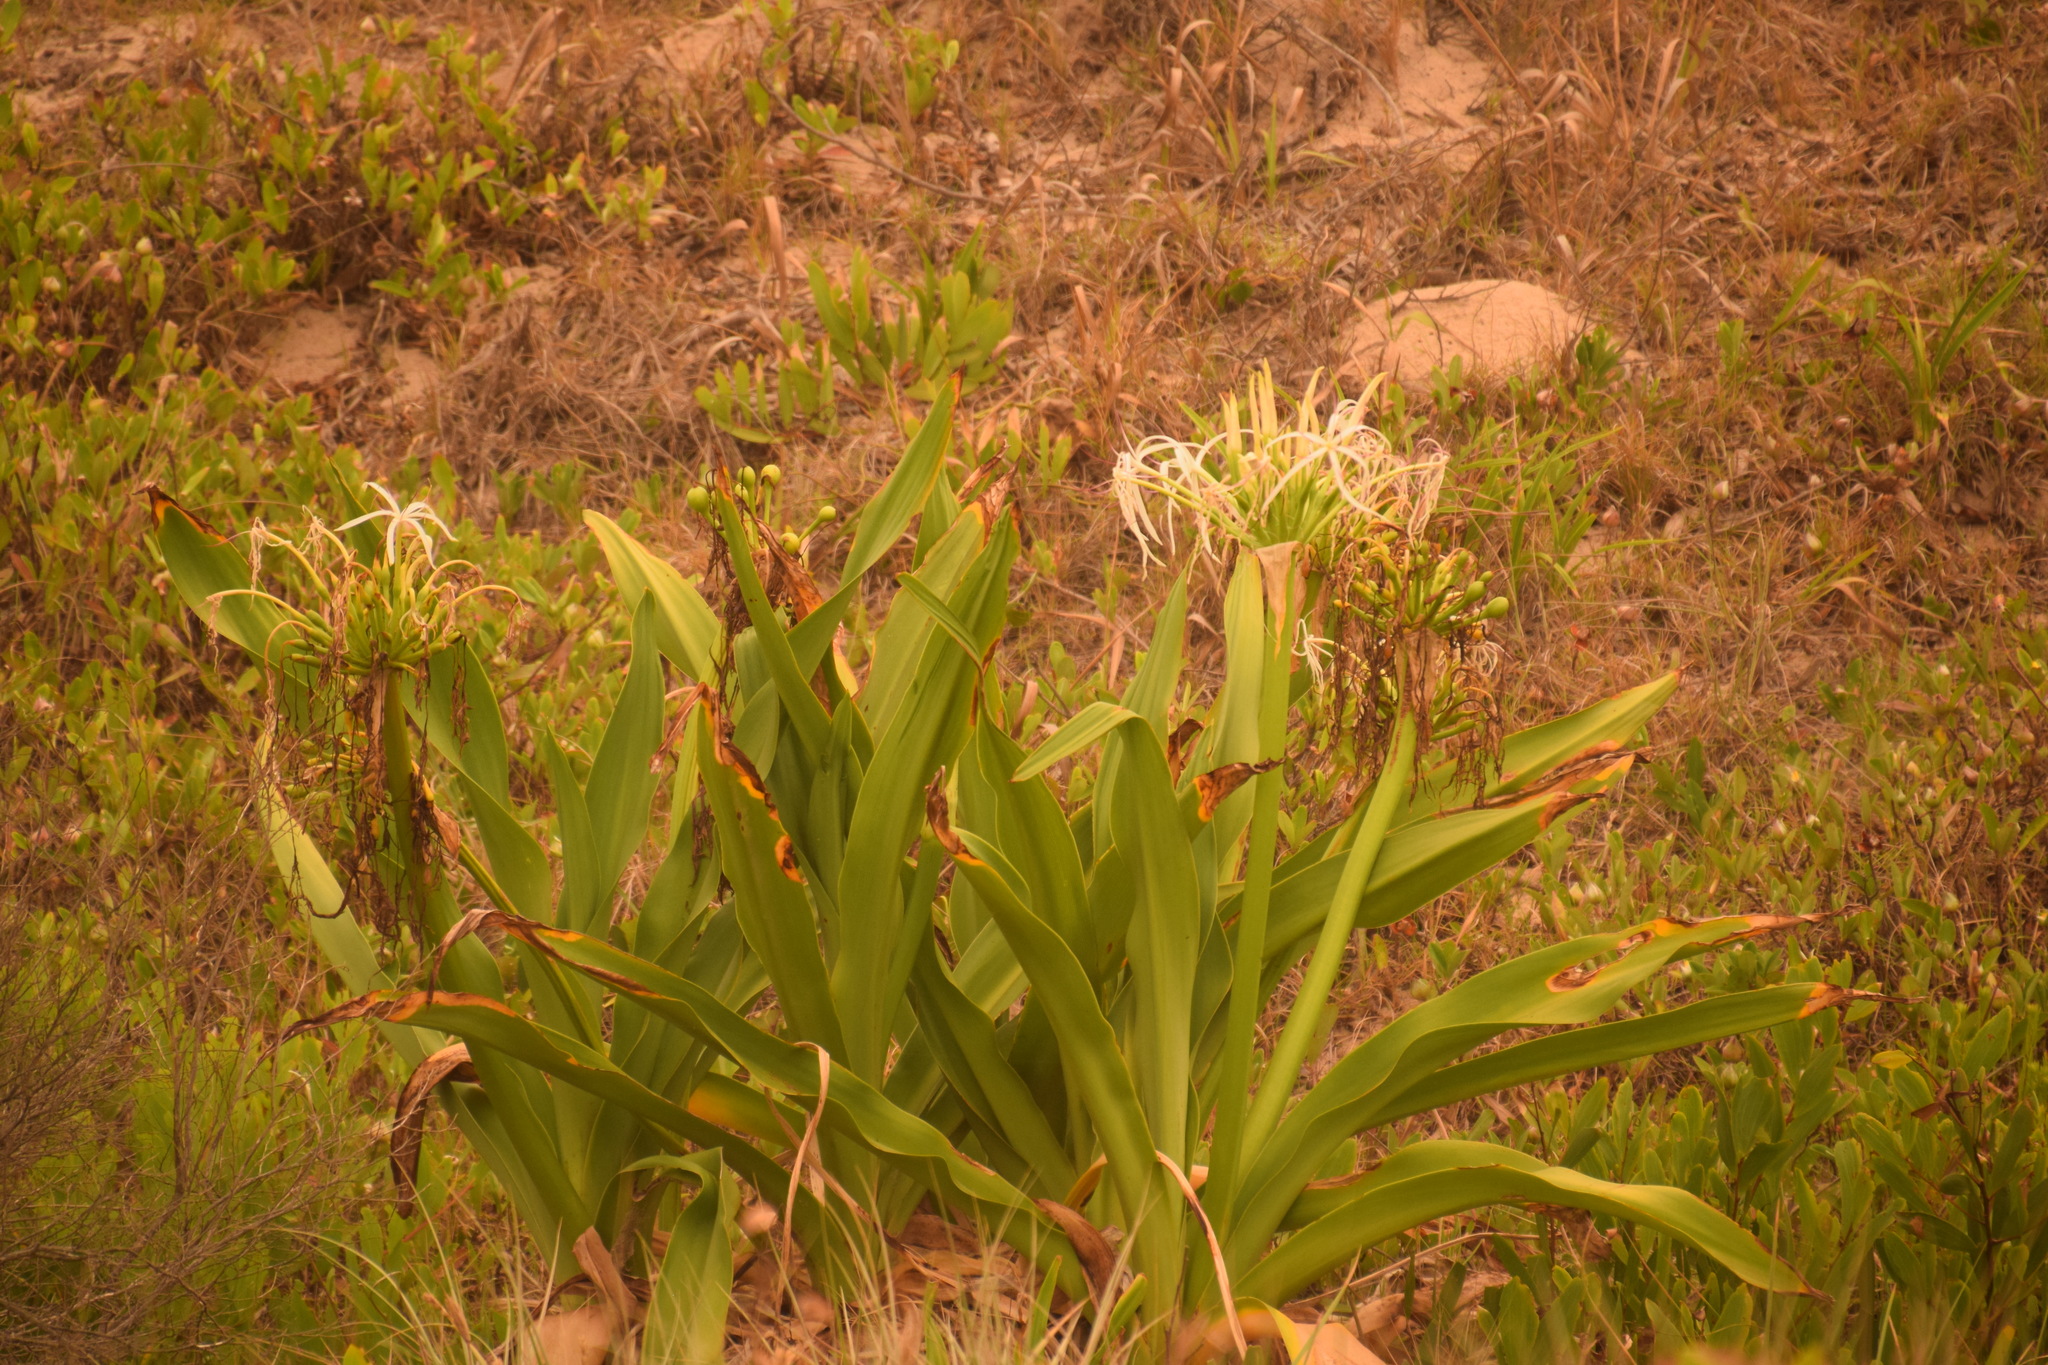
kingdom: Plantae
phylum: Tracheophyta
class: Liliopsida
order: Asparagales
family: Amaryllidaceae
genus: Crinum
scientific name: Crinum pedunculatum
